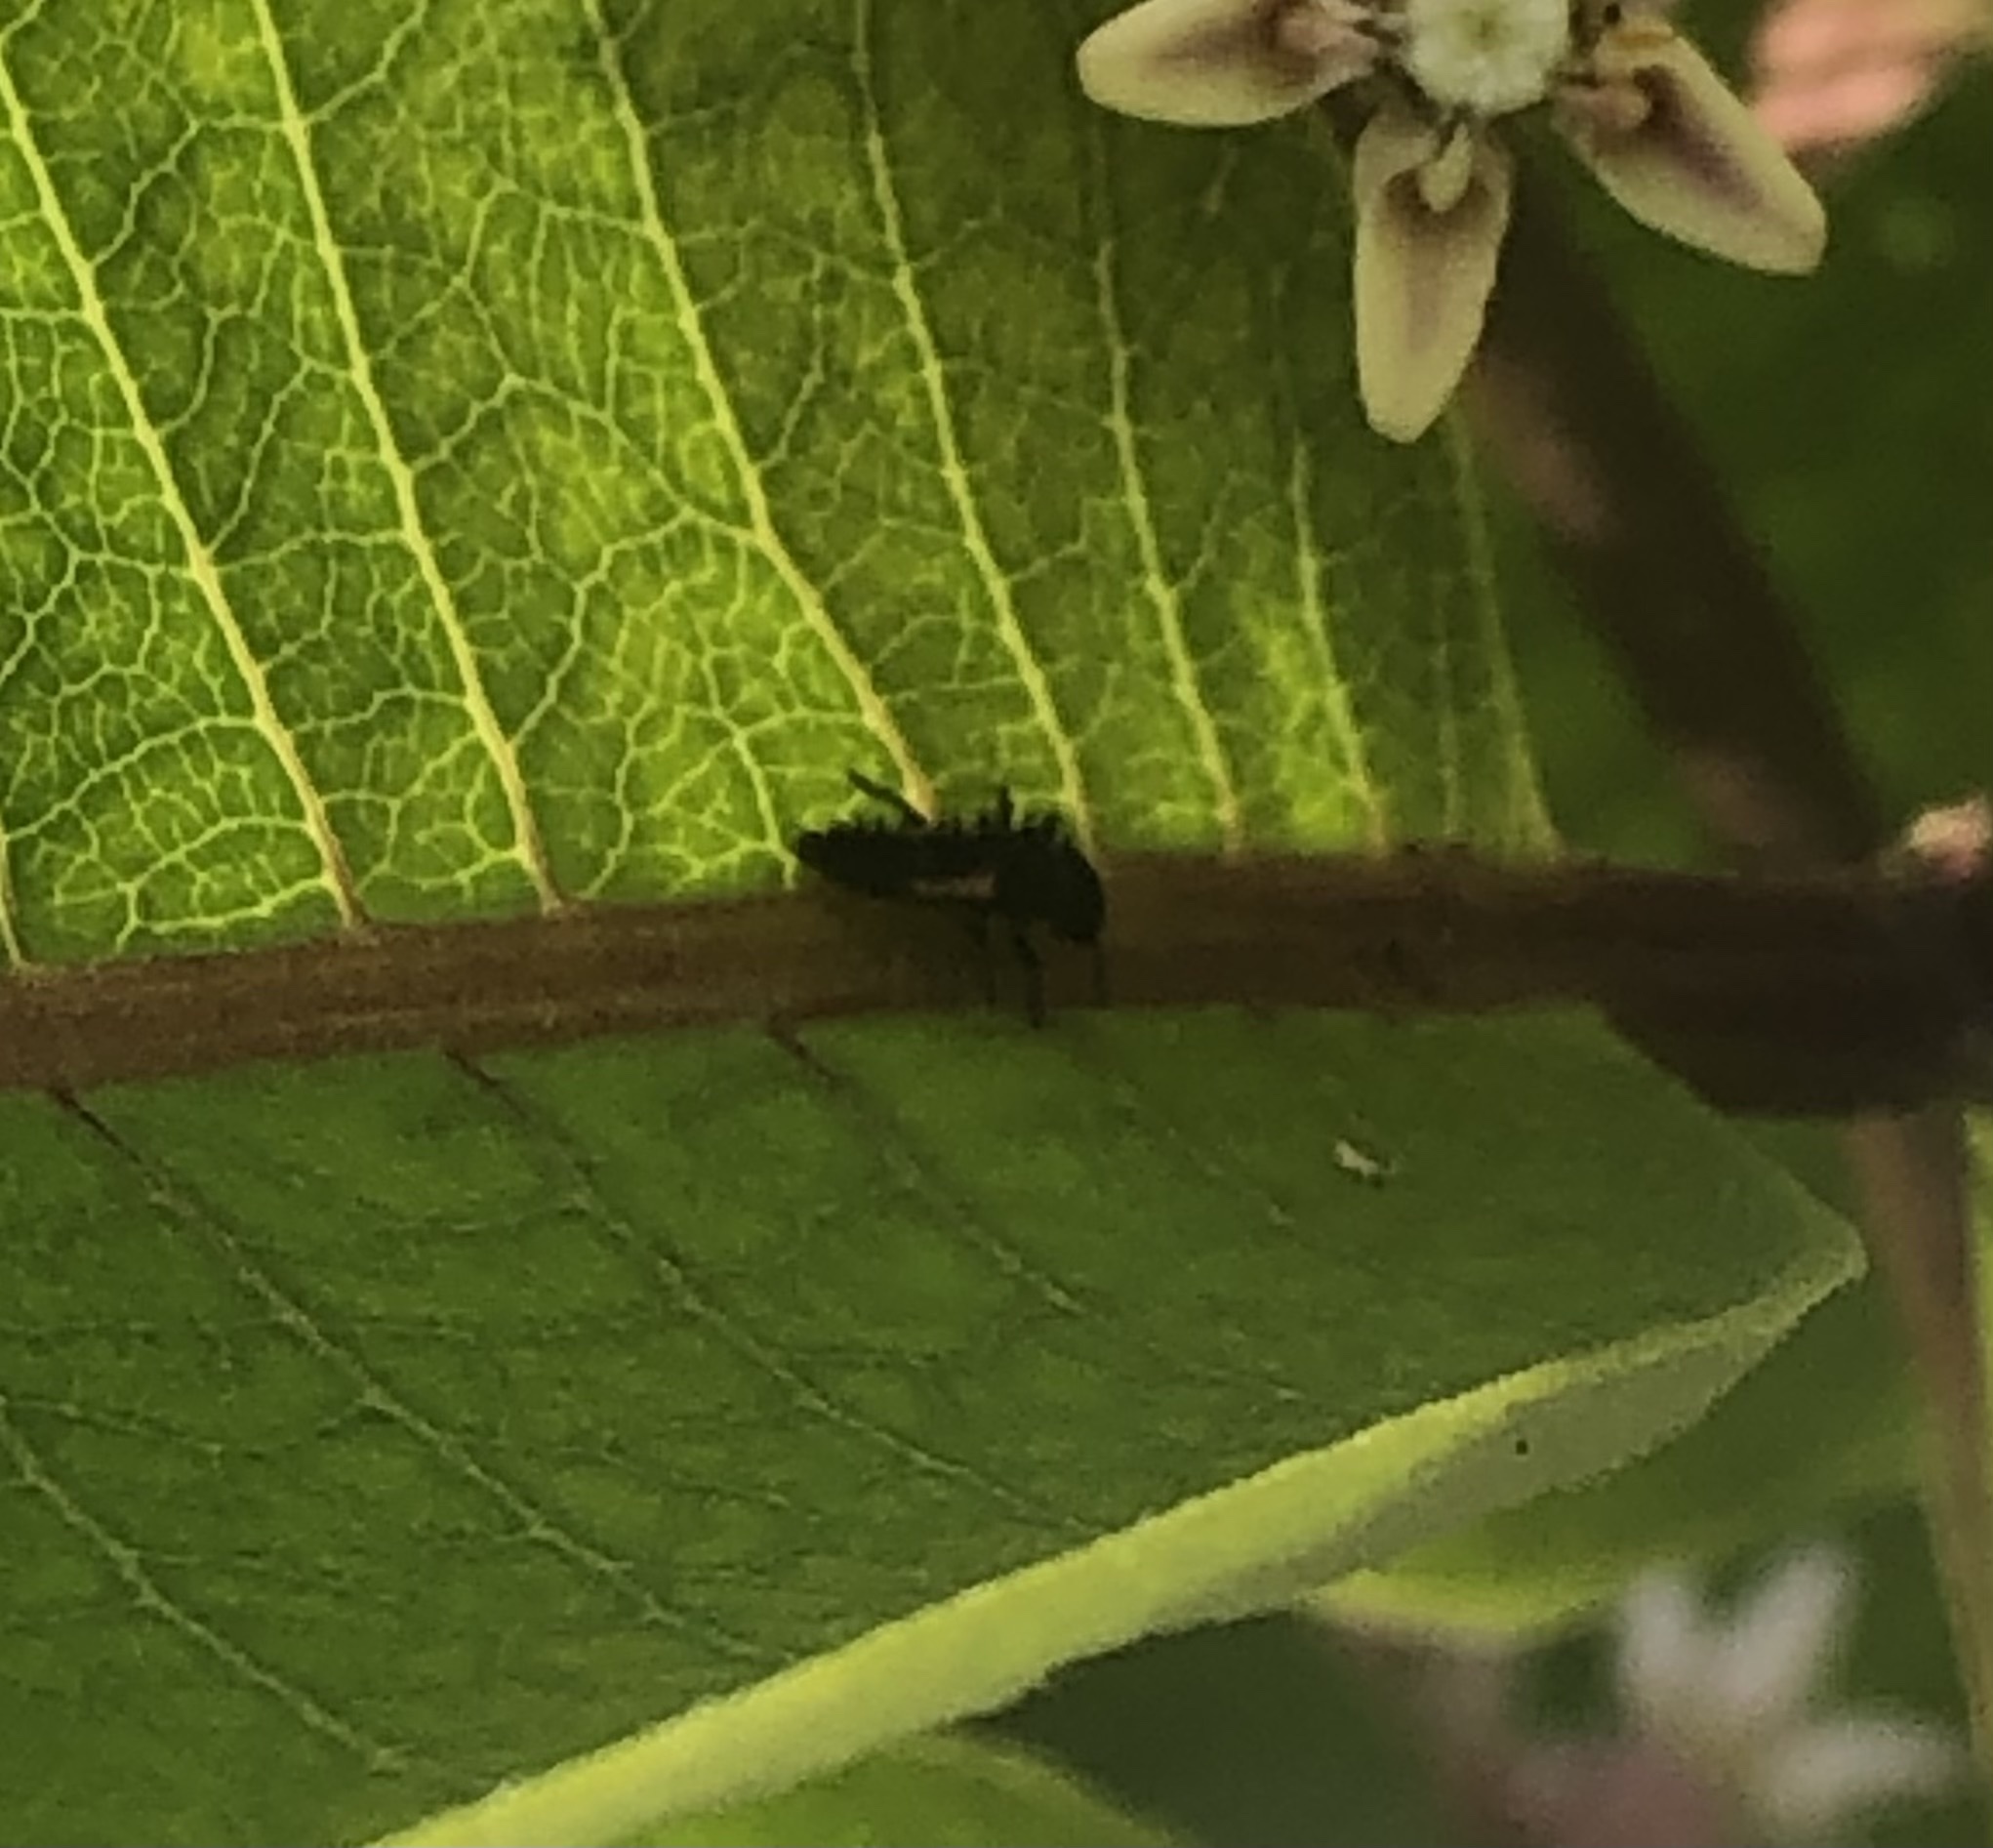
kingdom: Animalia
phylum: Arthropoda
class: Insecta
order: Coleoptera
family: Coccinellidae
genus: Harmonia
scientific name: Harmonia axyridis
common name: Harlequin ladybird
